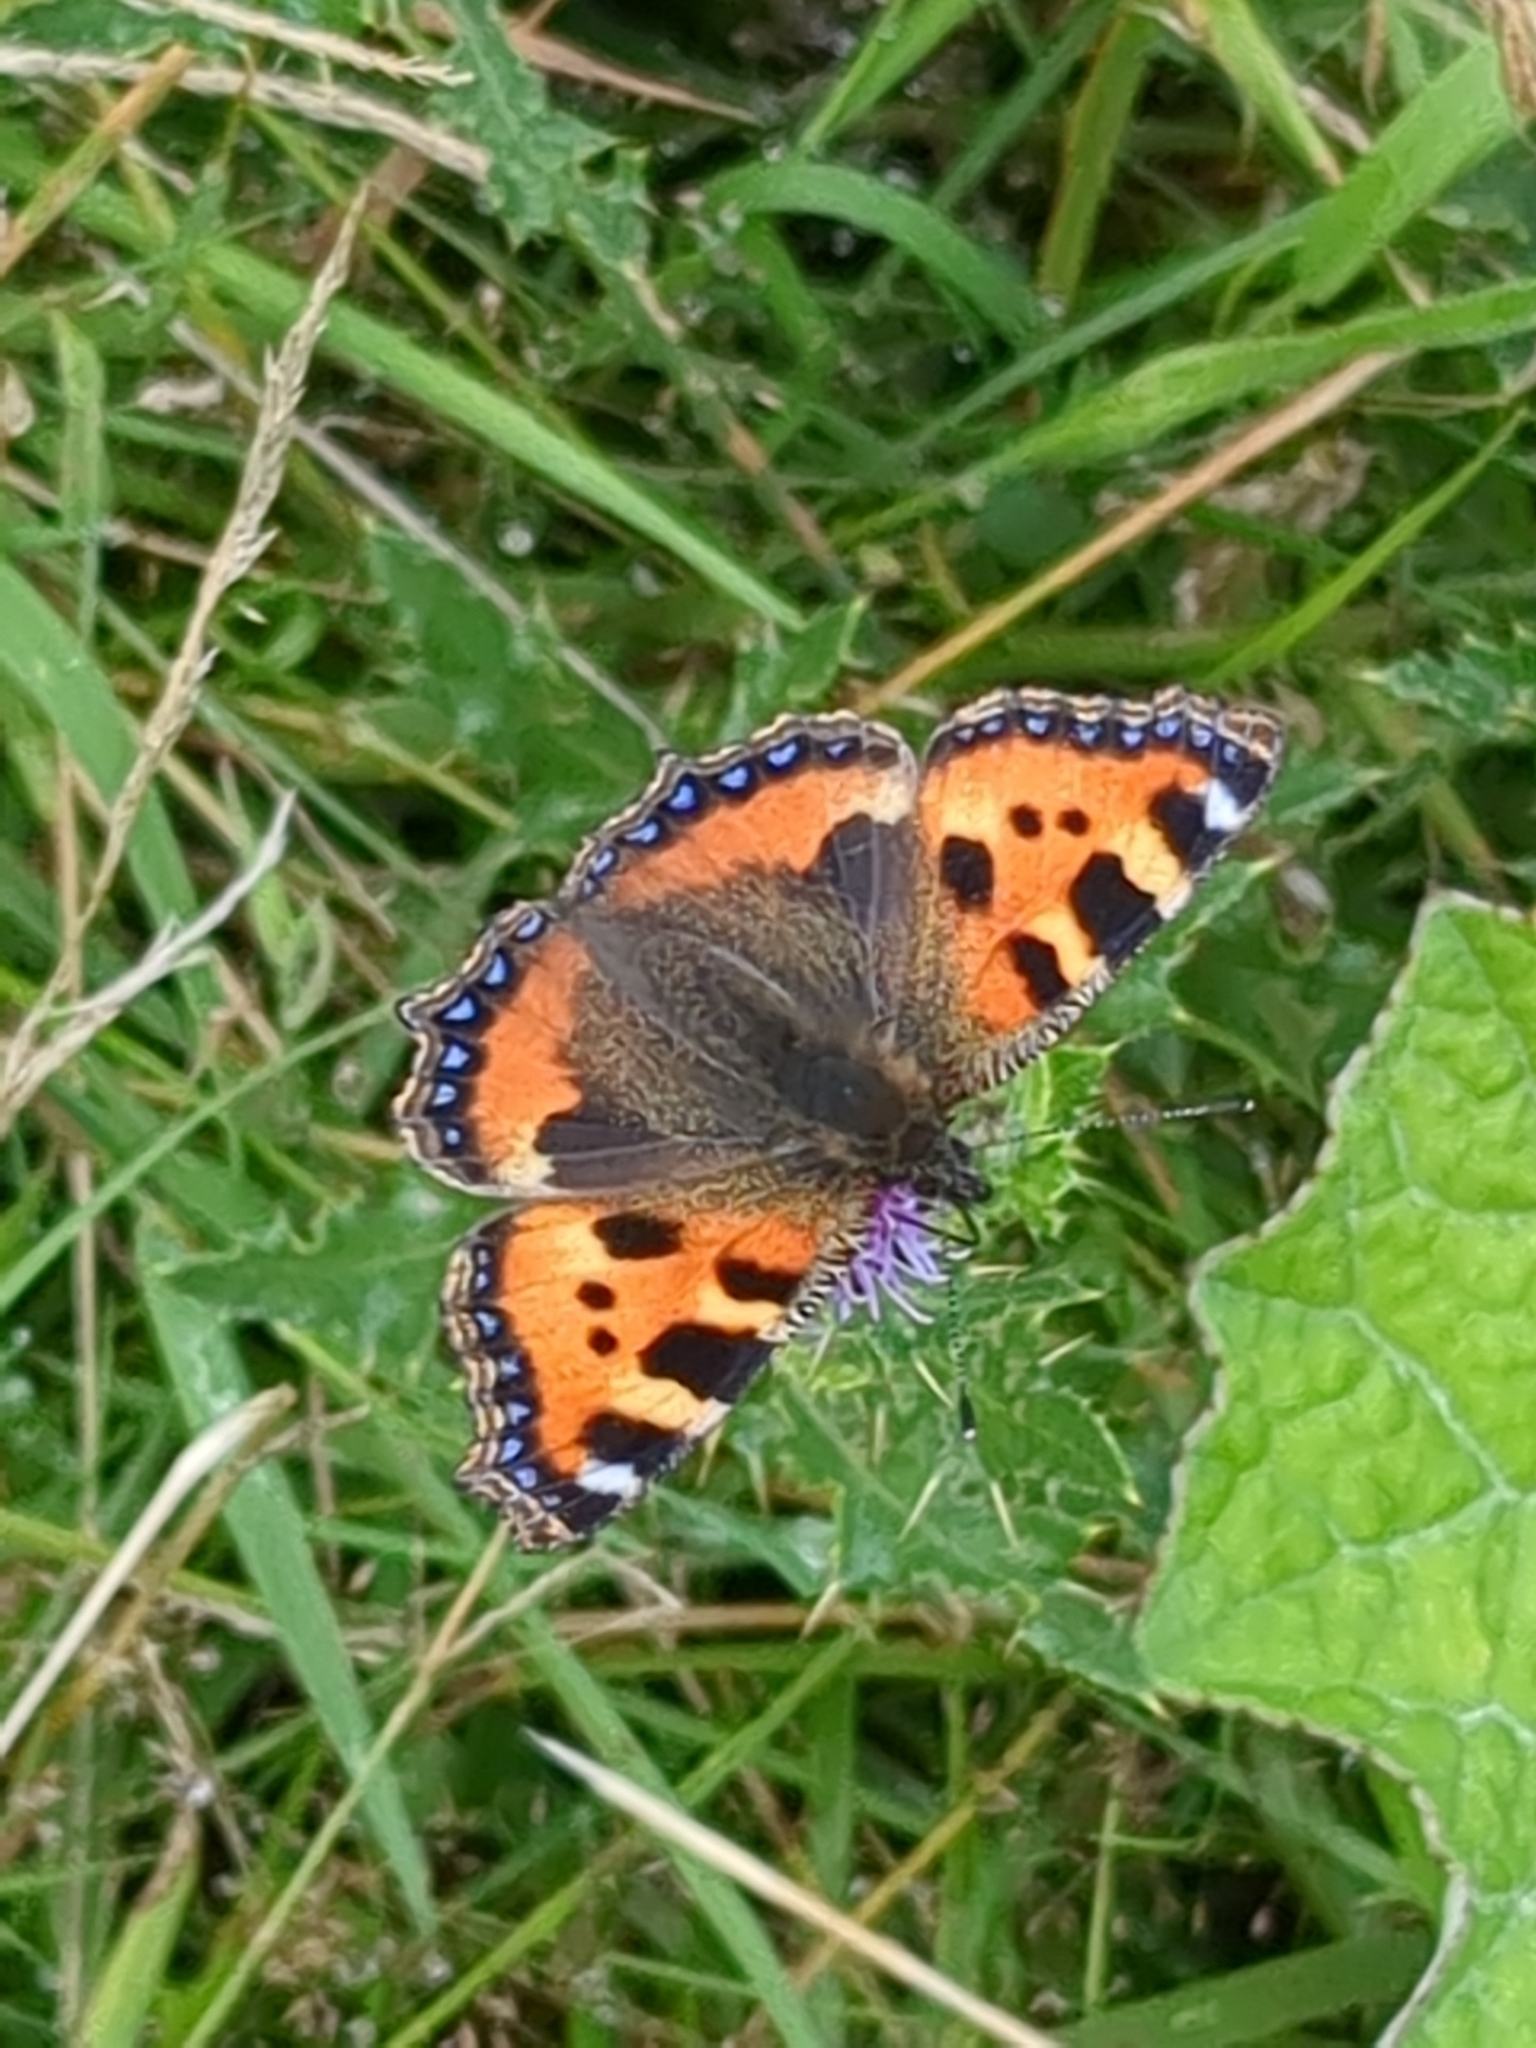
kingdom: Animalia
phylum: Arthropoda
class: Insecta
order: Lepidoptera
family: Nymphalidae
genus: Aglais
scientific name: Aglais urticae
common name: Small tortoiseshell
